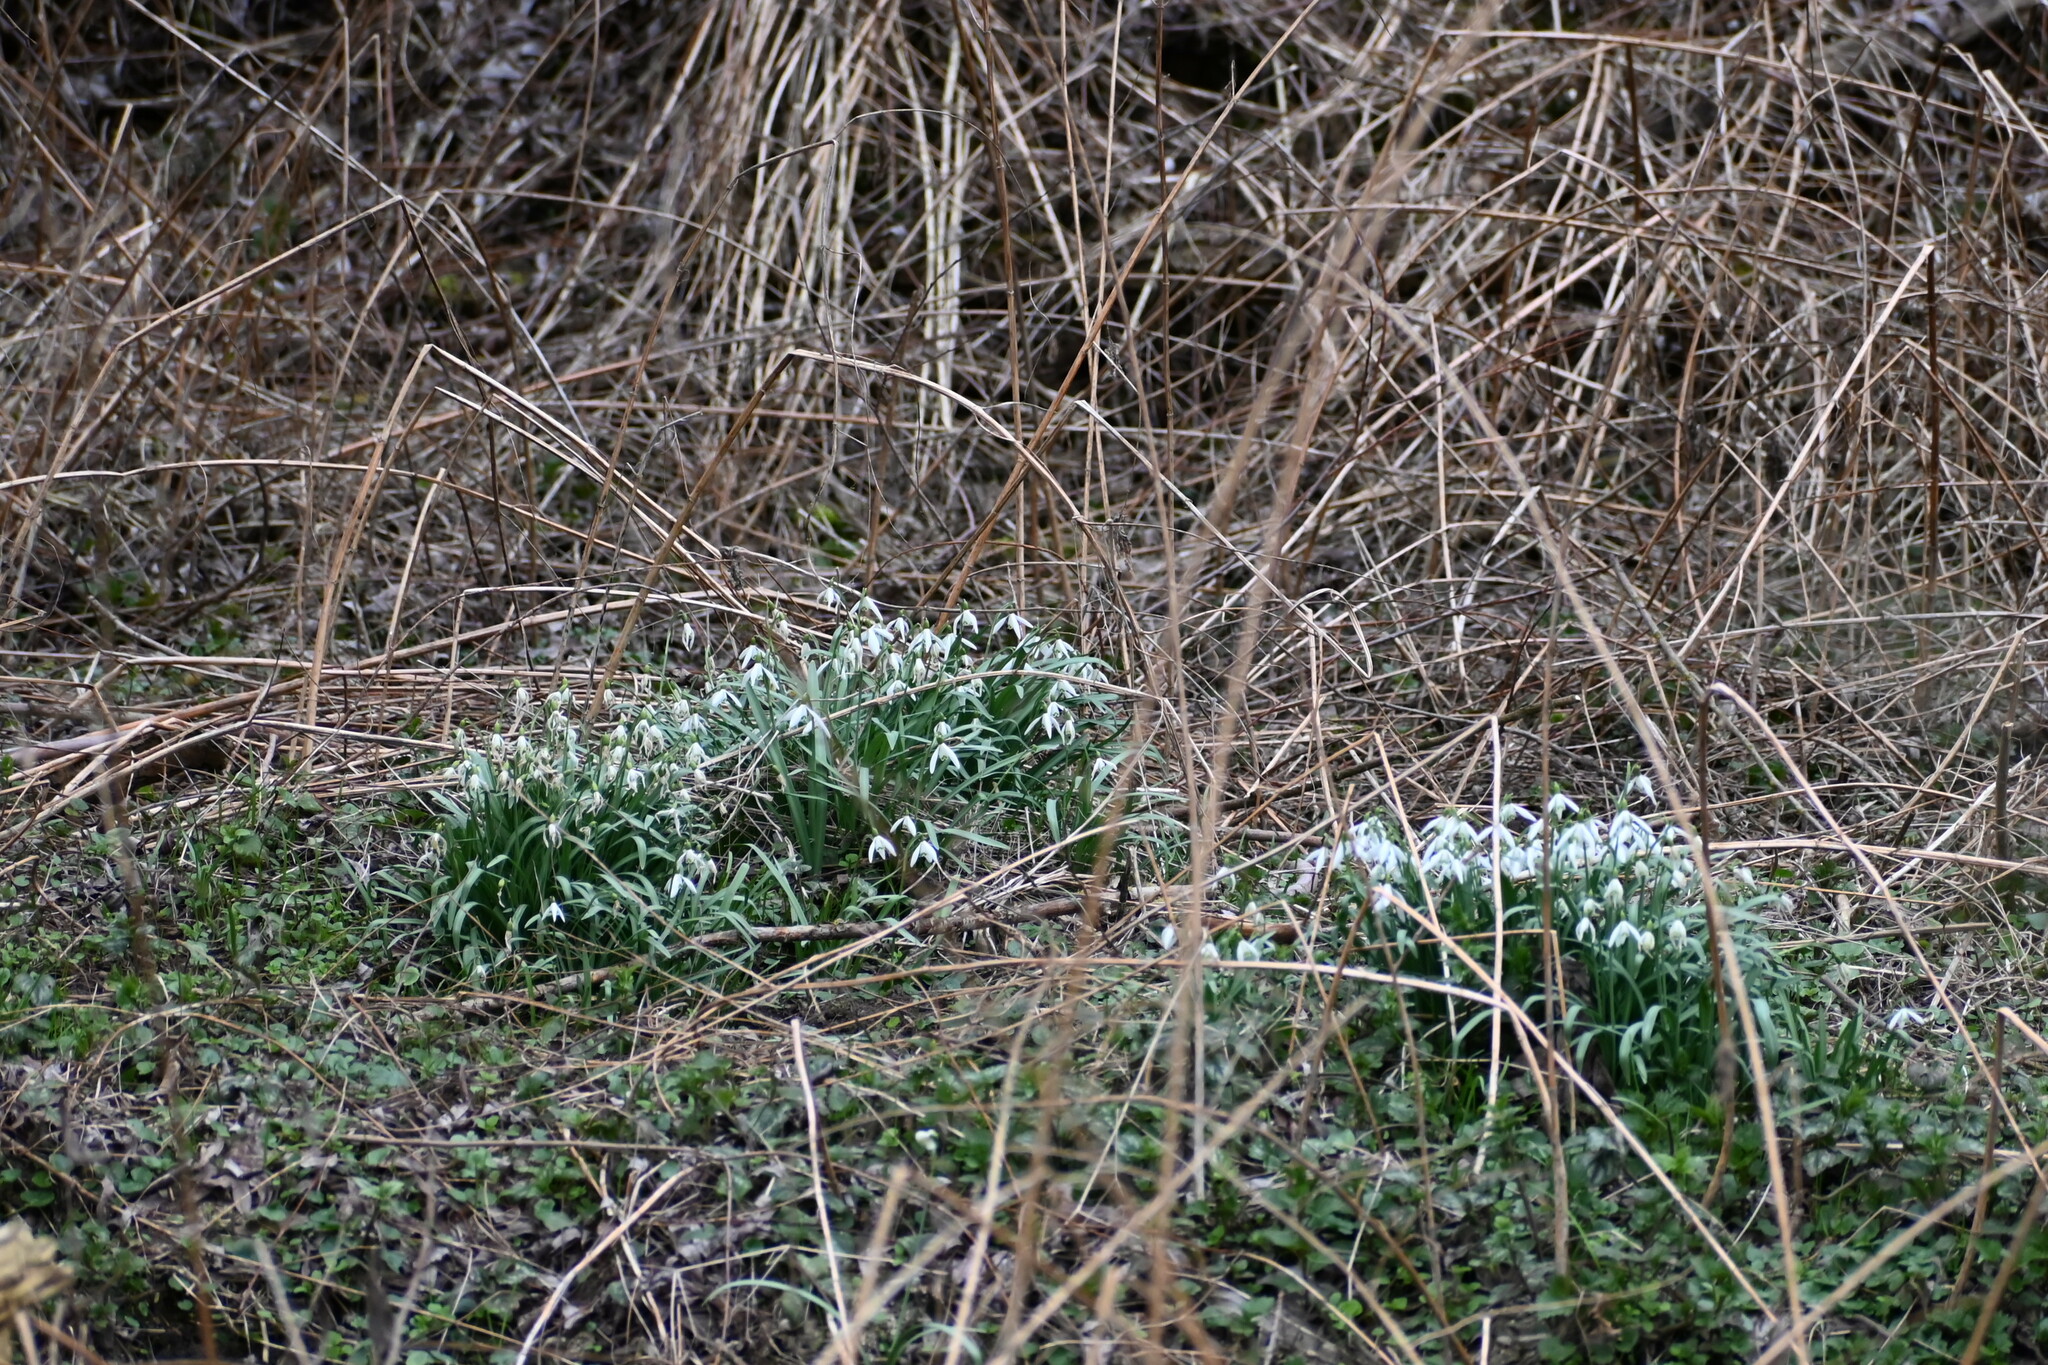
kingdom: Plantae
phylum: Tracheophyta
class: Liliopsida
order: Asparagales
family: Amaryllidaceae
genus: Galanthus
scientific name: Galanthus nivalis
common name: Snowdrop
